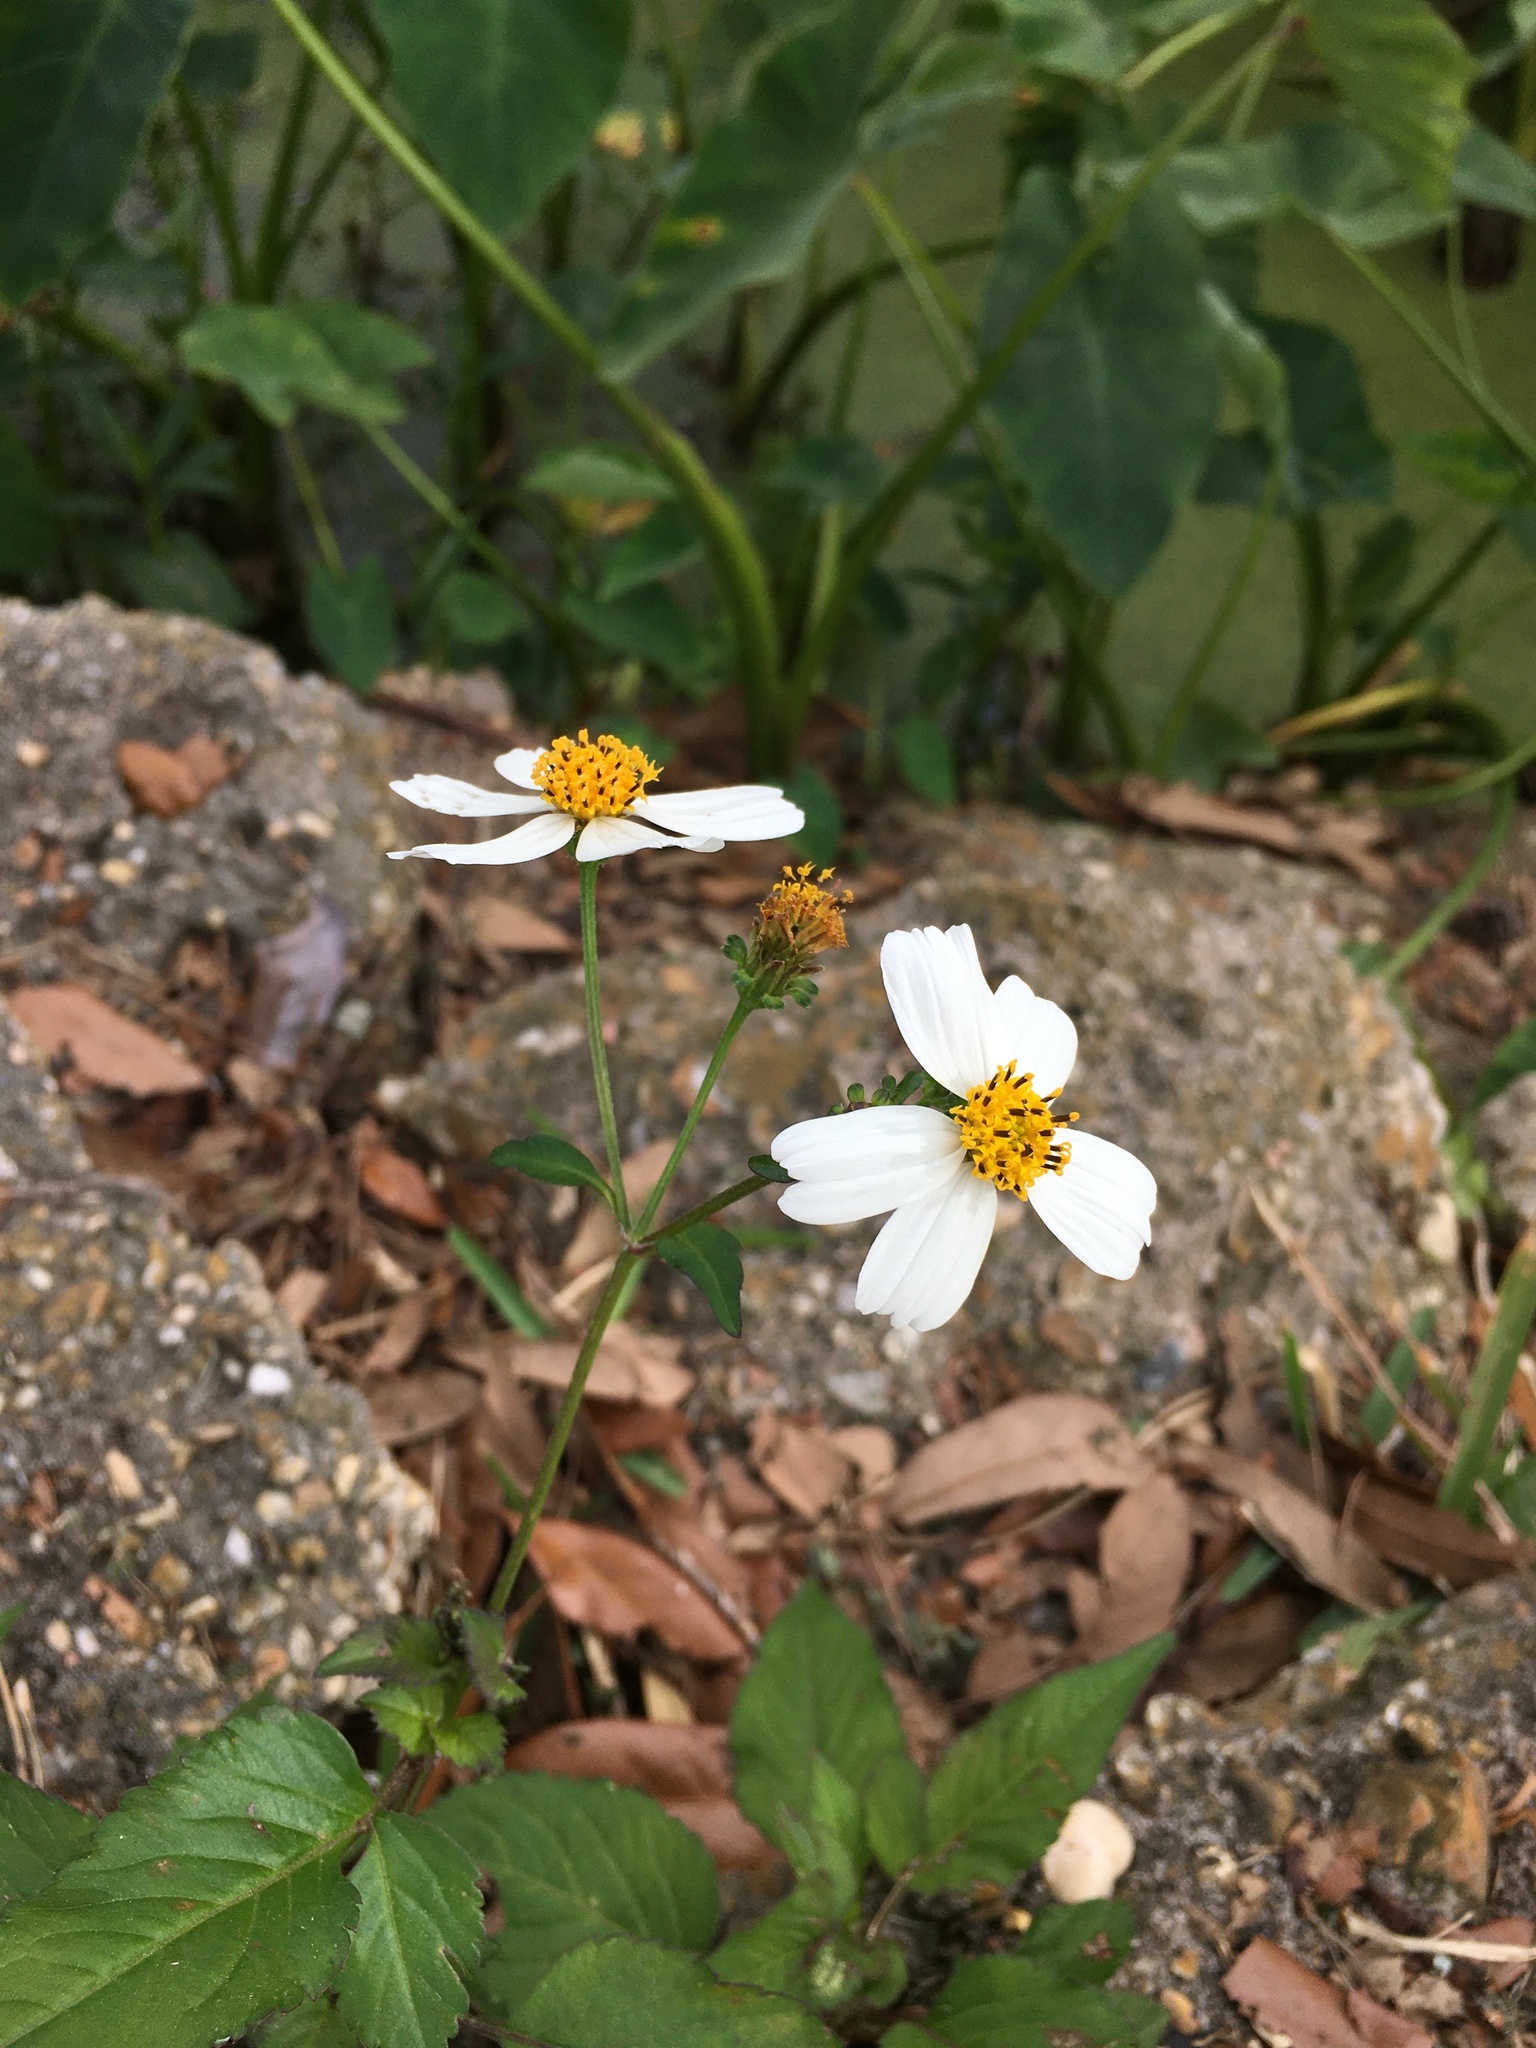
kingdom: Plantae
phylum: Tracheophyta
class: Magnoliopsida
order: Asterales
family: Asteraceae
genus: Bidens
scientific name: Bidens alba
